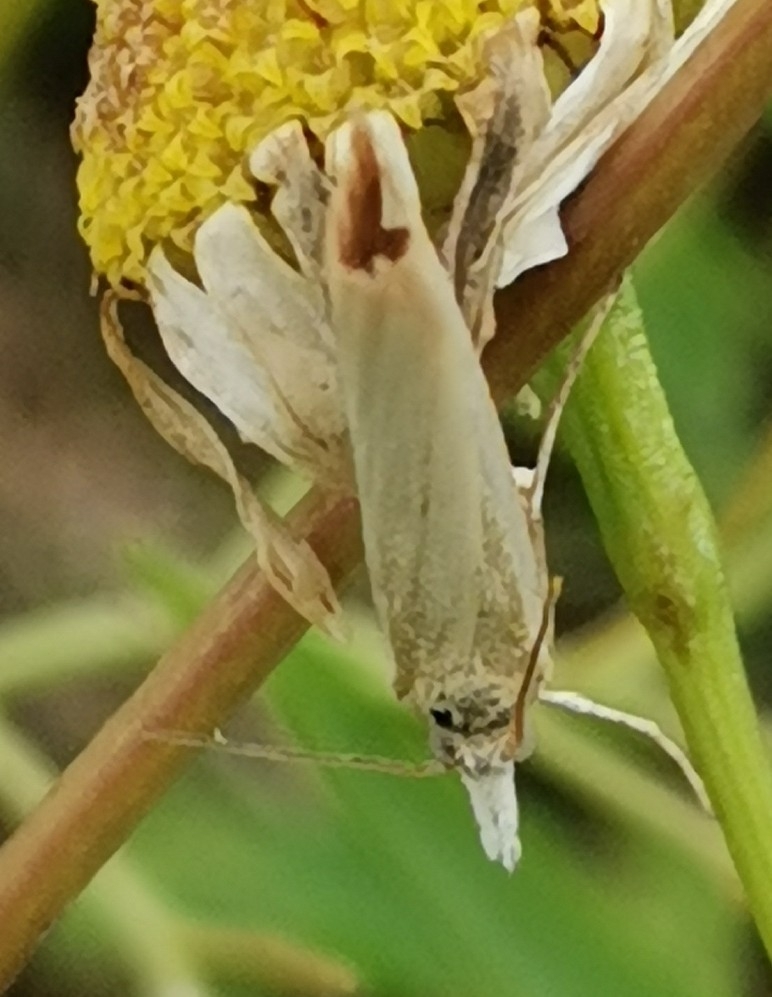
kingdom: Animalia
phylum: Arthropoda
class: Insecta
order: Lepidoptera
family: Crambidae
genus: Agriphila
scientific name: Agriphila straminella
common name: Straw grass-veneer
